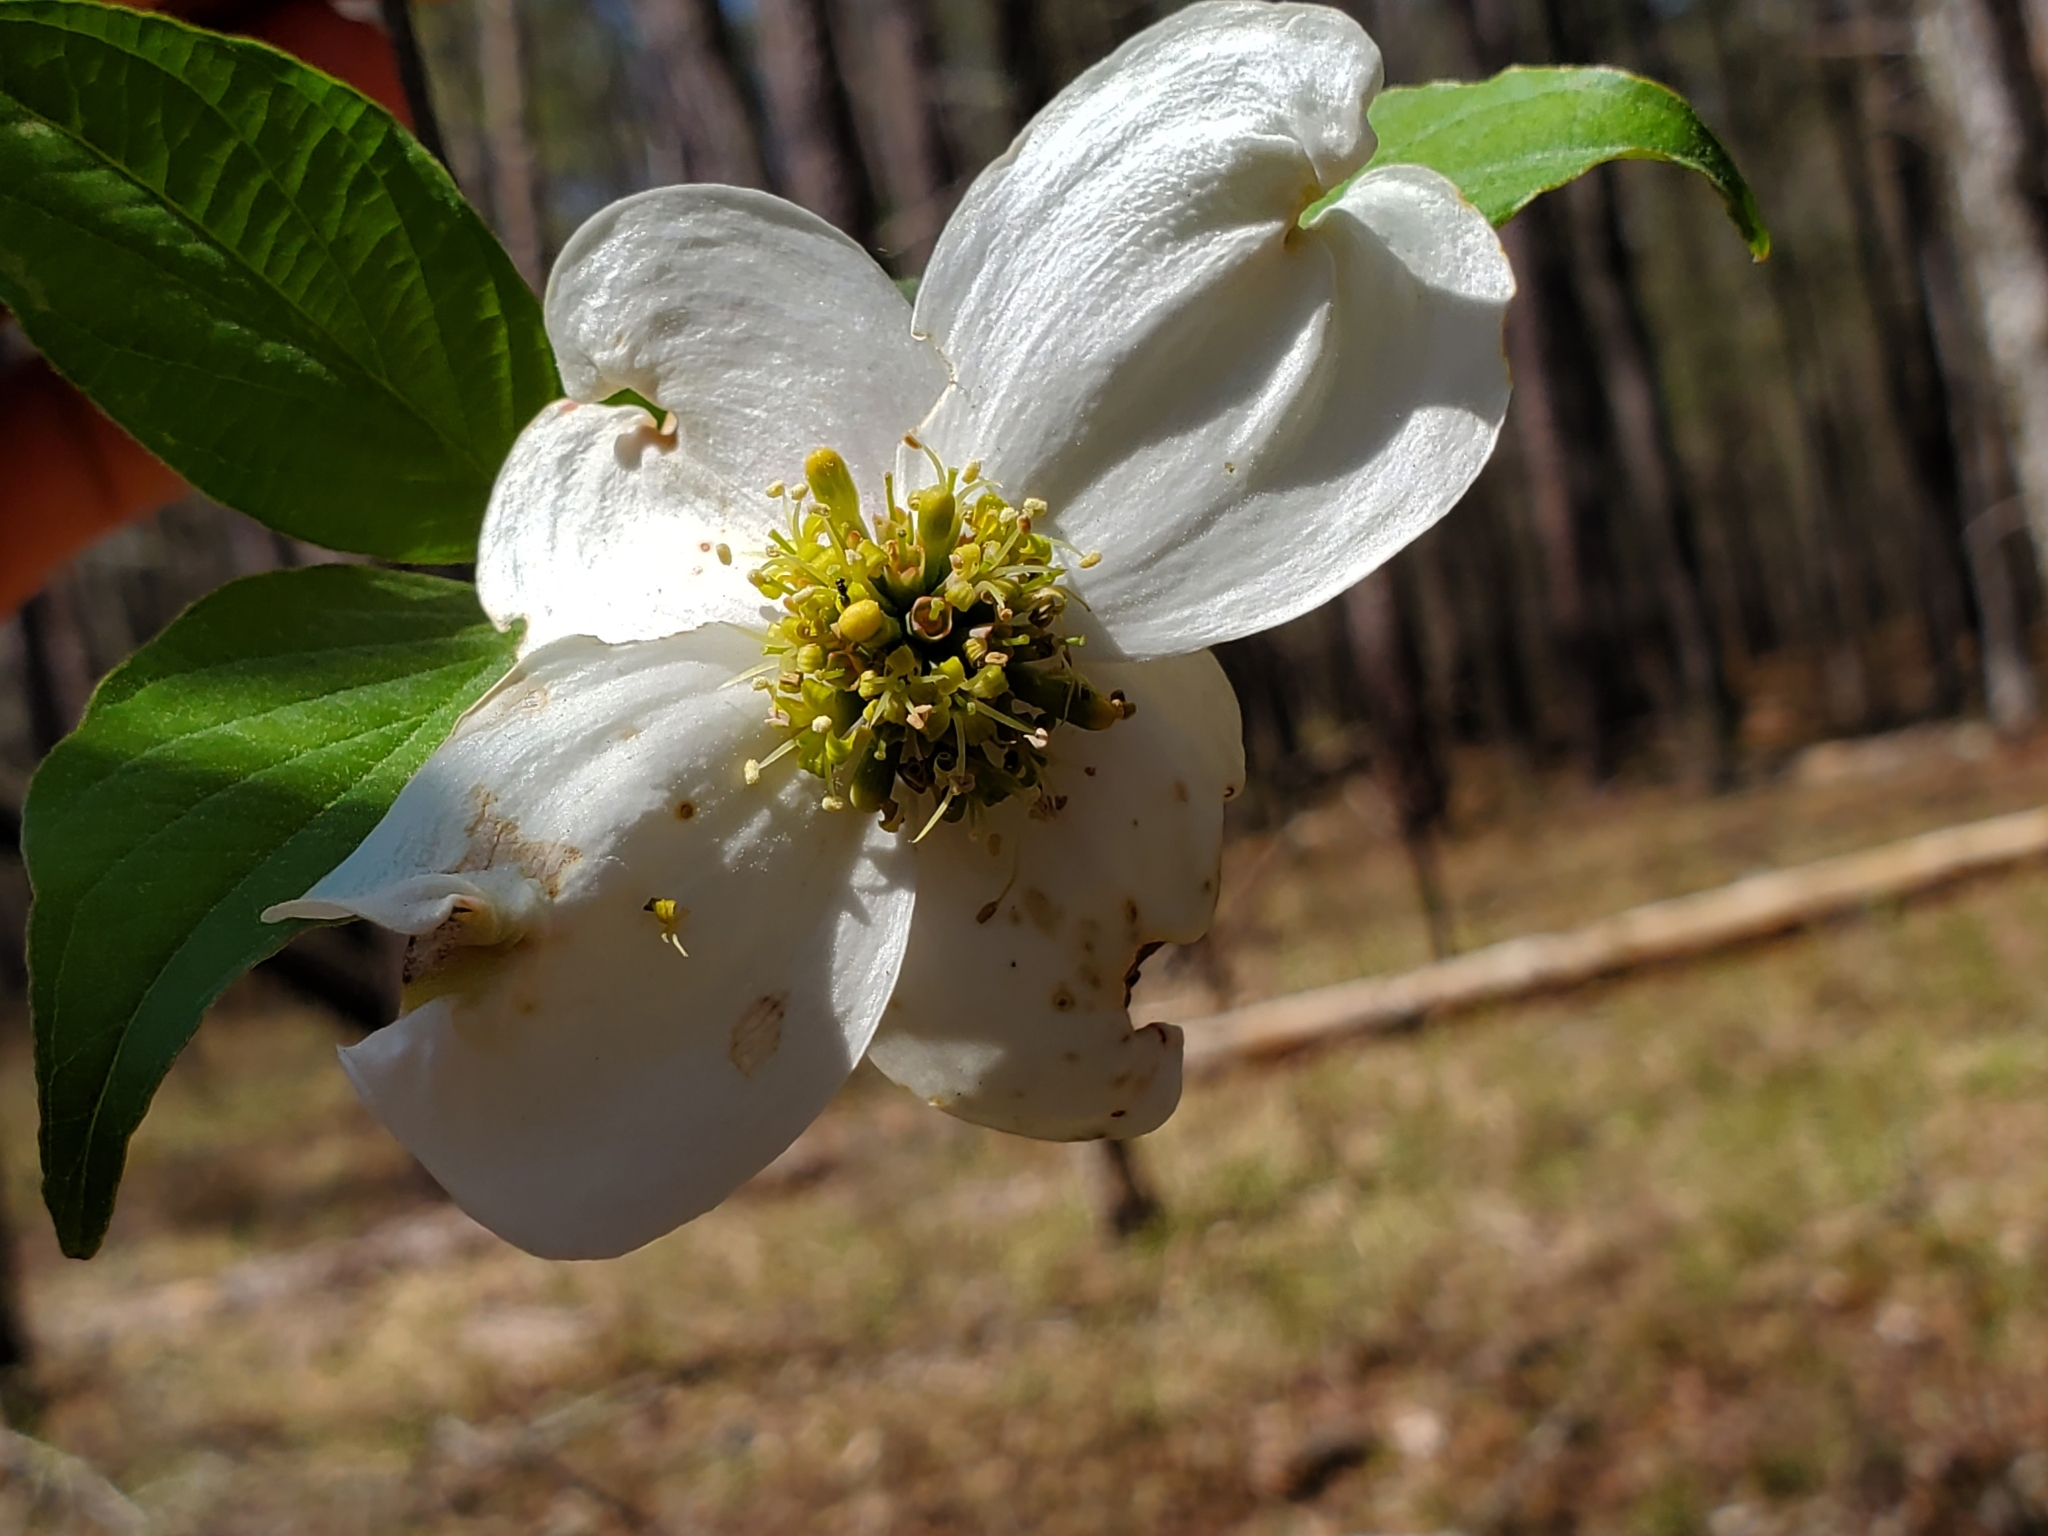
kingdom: Plantae
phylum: Tracheophyta
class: Magnoliopsida
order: Cornales
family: Cornaceae
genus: Cornus
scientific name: Cornus florida
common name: Flowering dogwood
